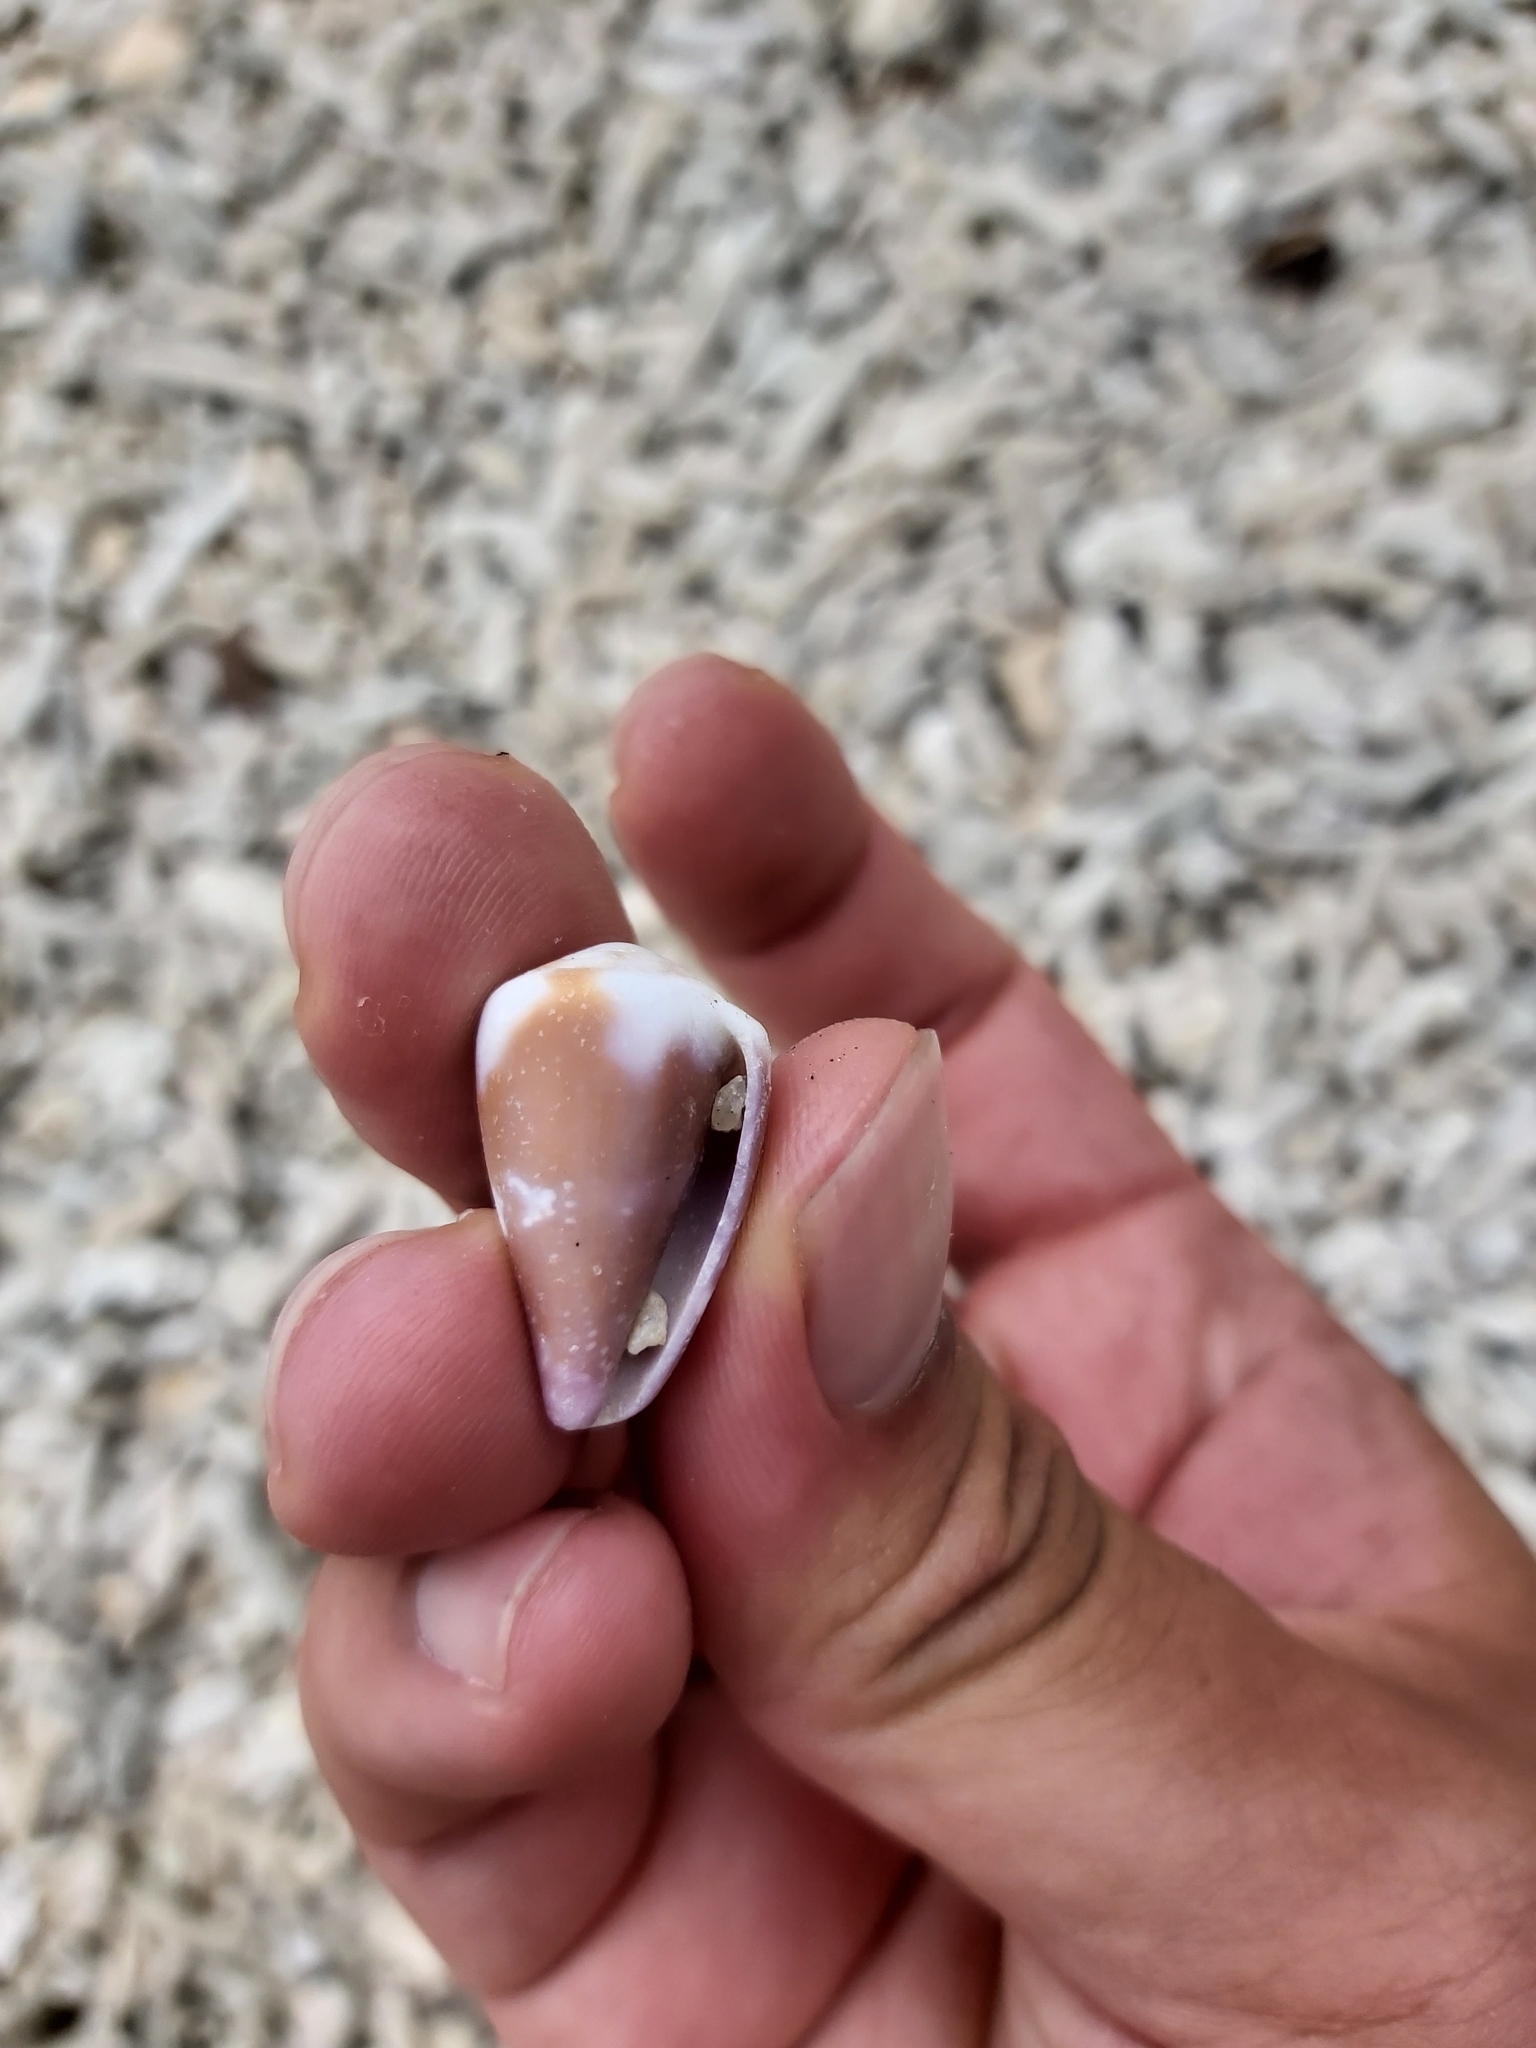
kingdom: Animalia
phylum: Mollusca
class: Gastropoda
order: Neogastropoda
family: Conidae
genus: Conus
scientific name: Conus rattus
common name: Rat cone
